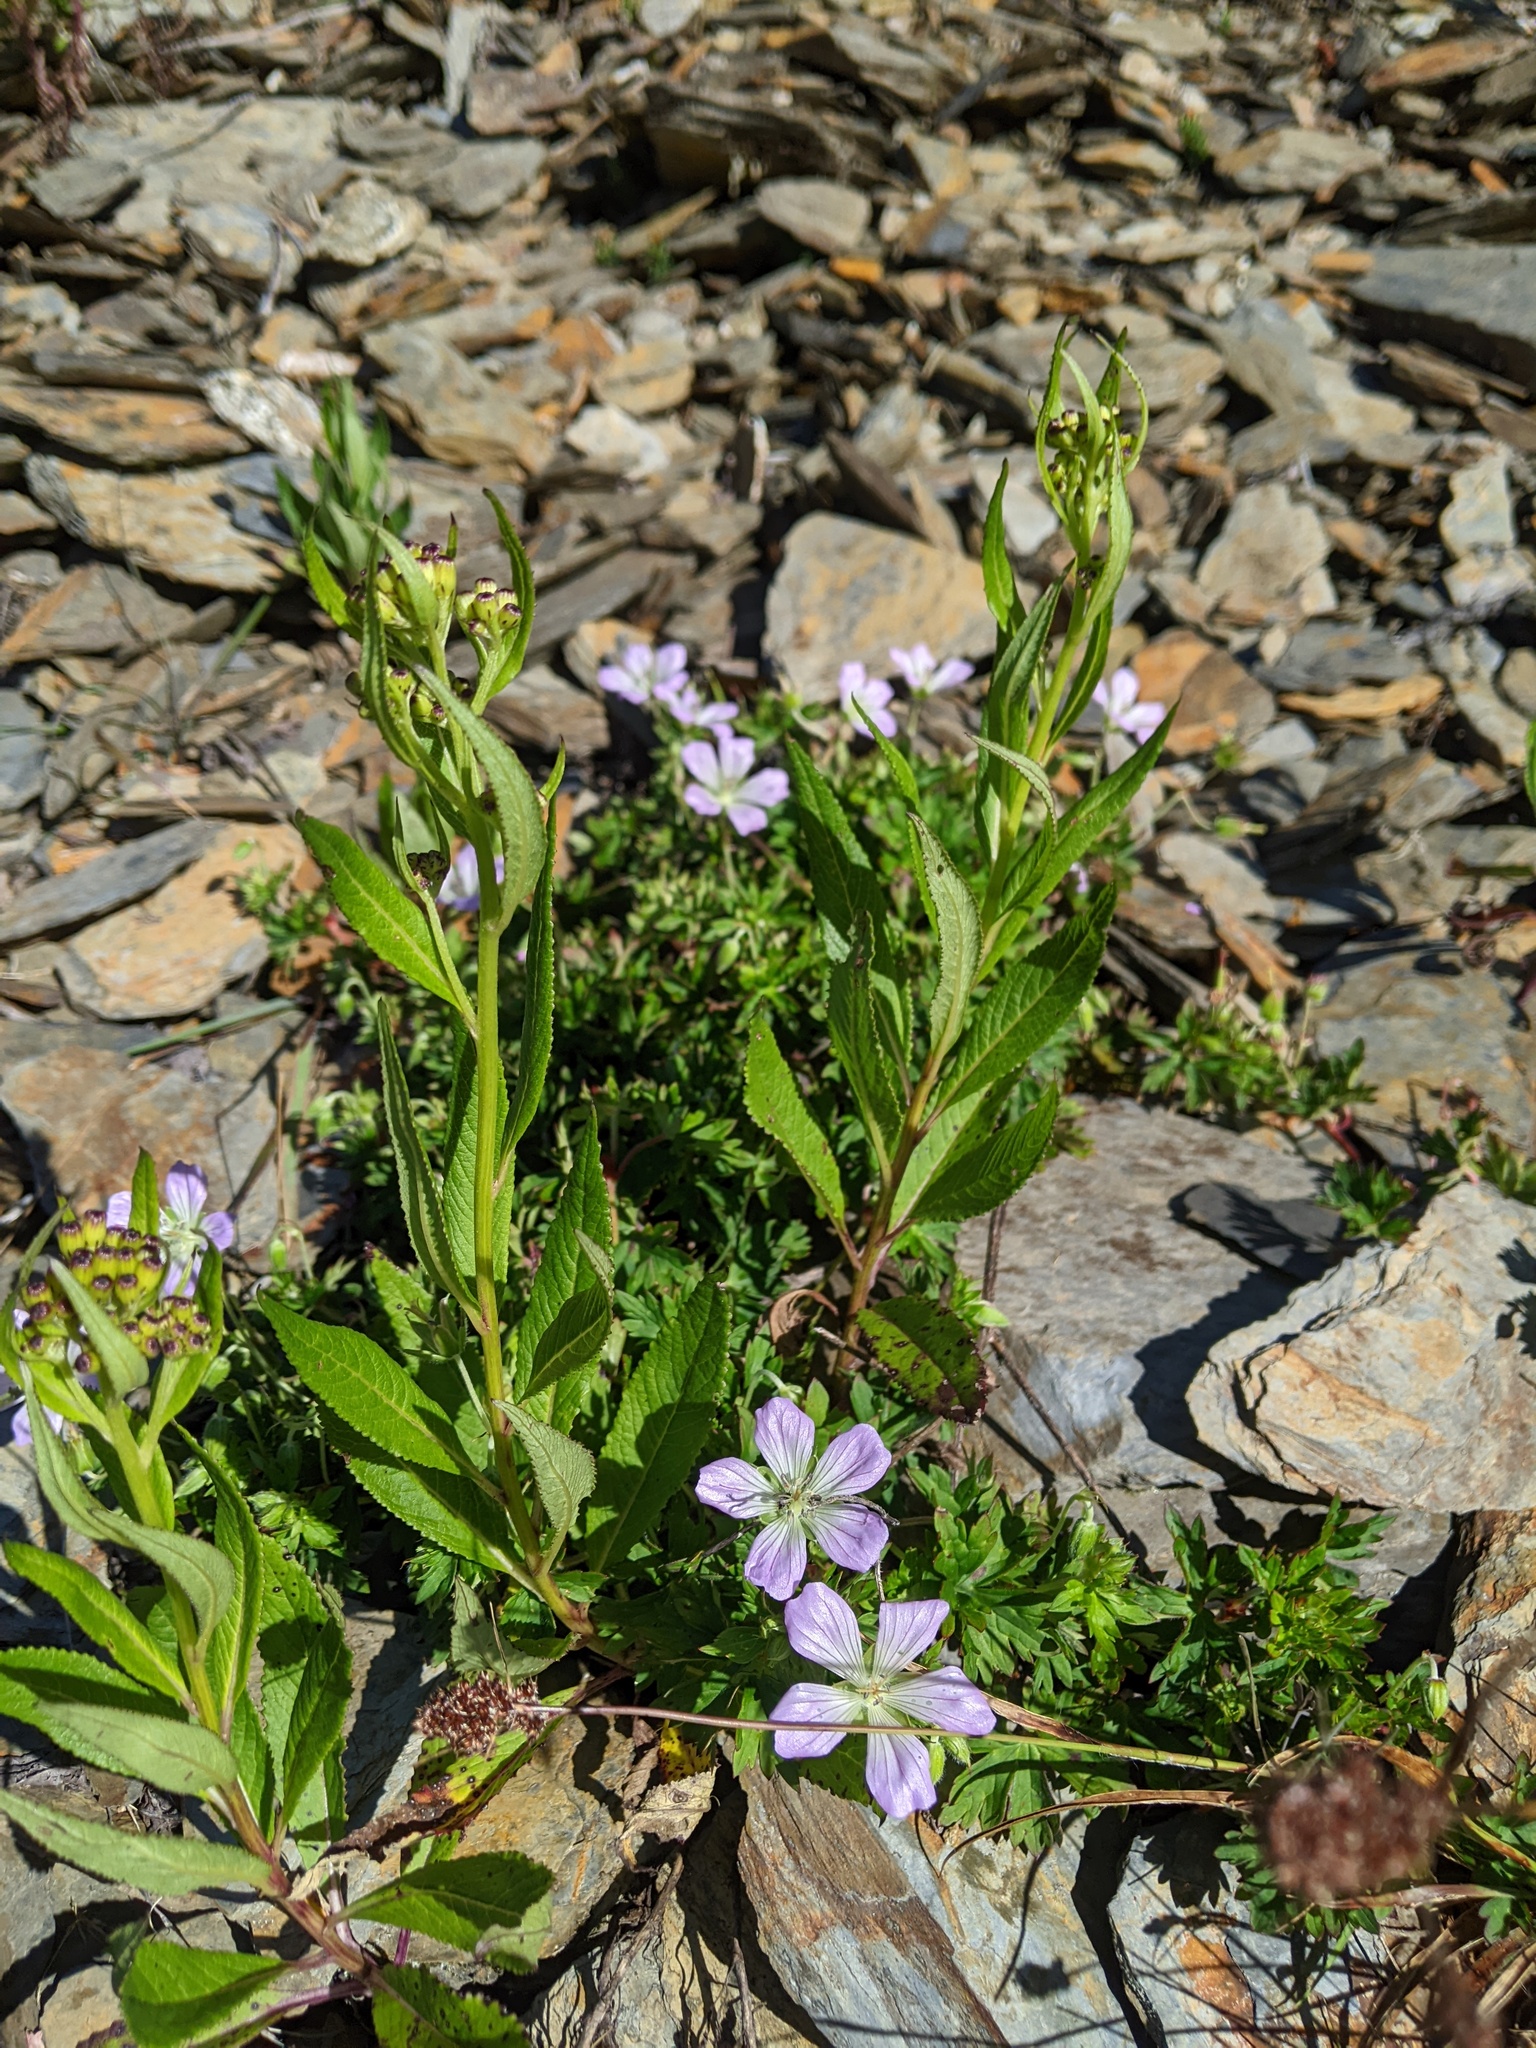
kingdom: Plantae
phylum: Tracheophyta
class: Magnoliopsida
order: Geraniales
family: Geraniaceae
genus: Geranium
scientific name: Geranium hayatanum
